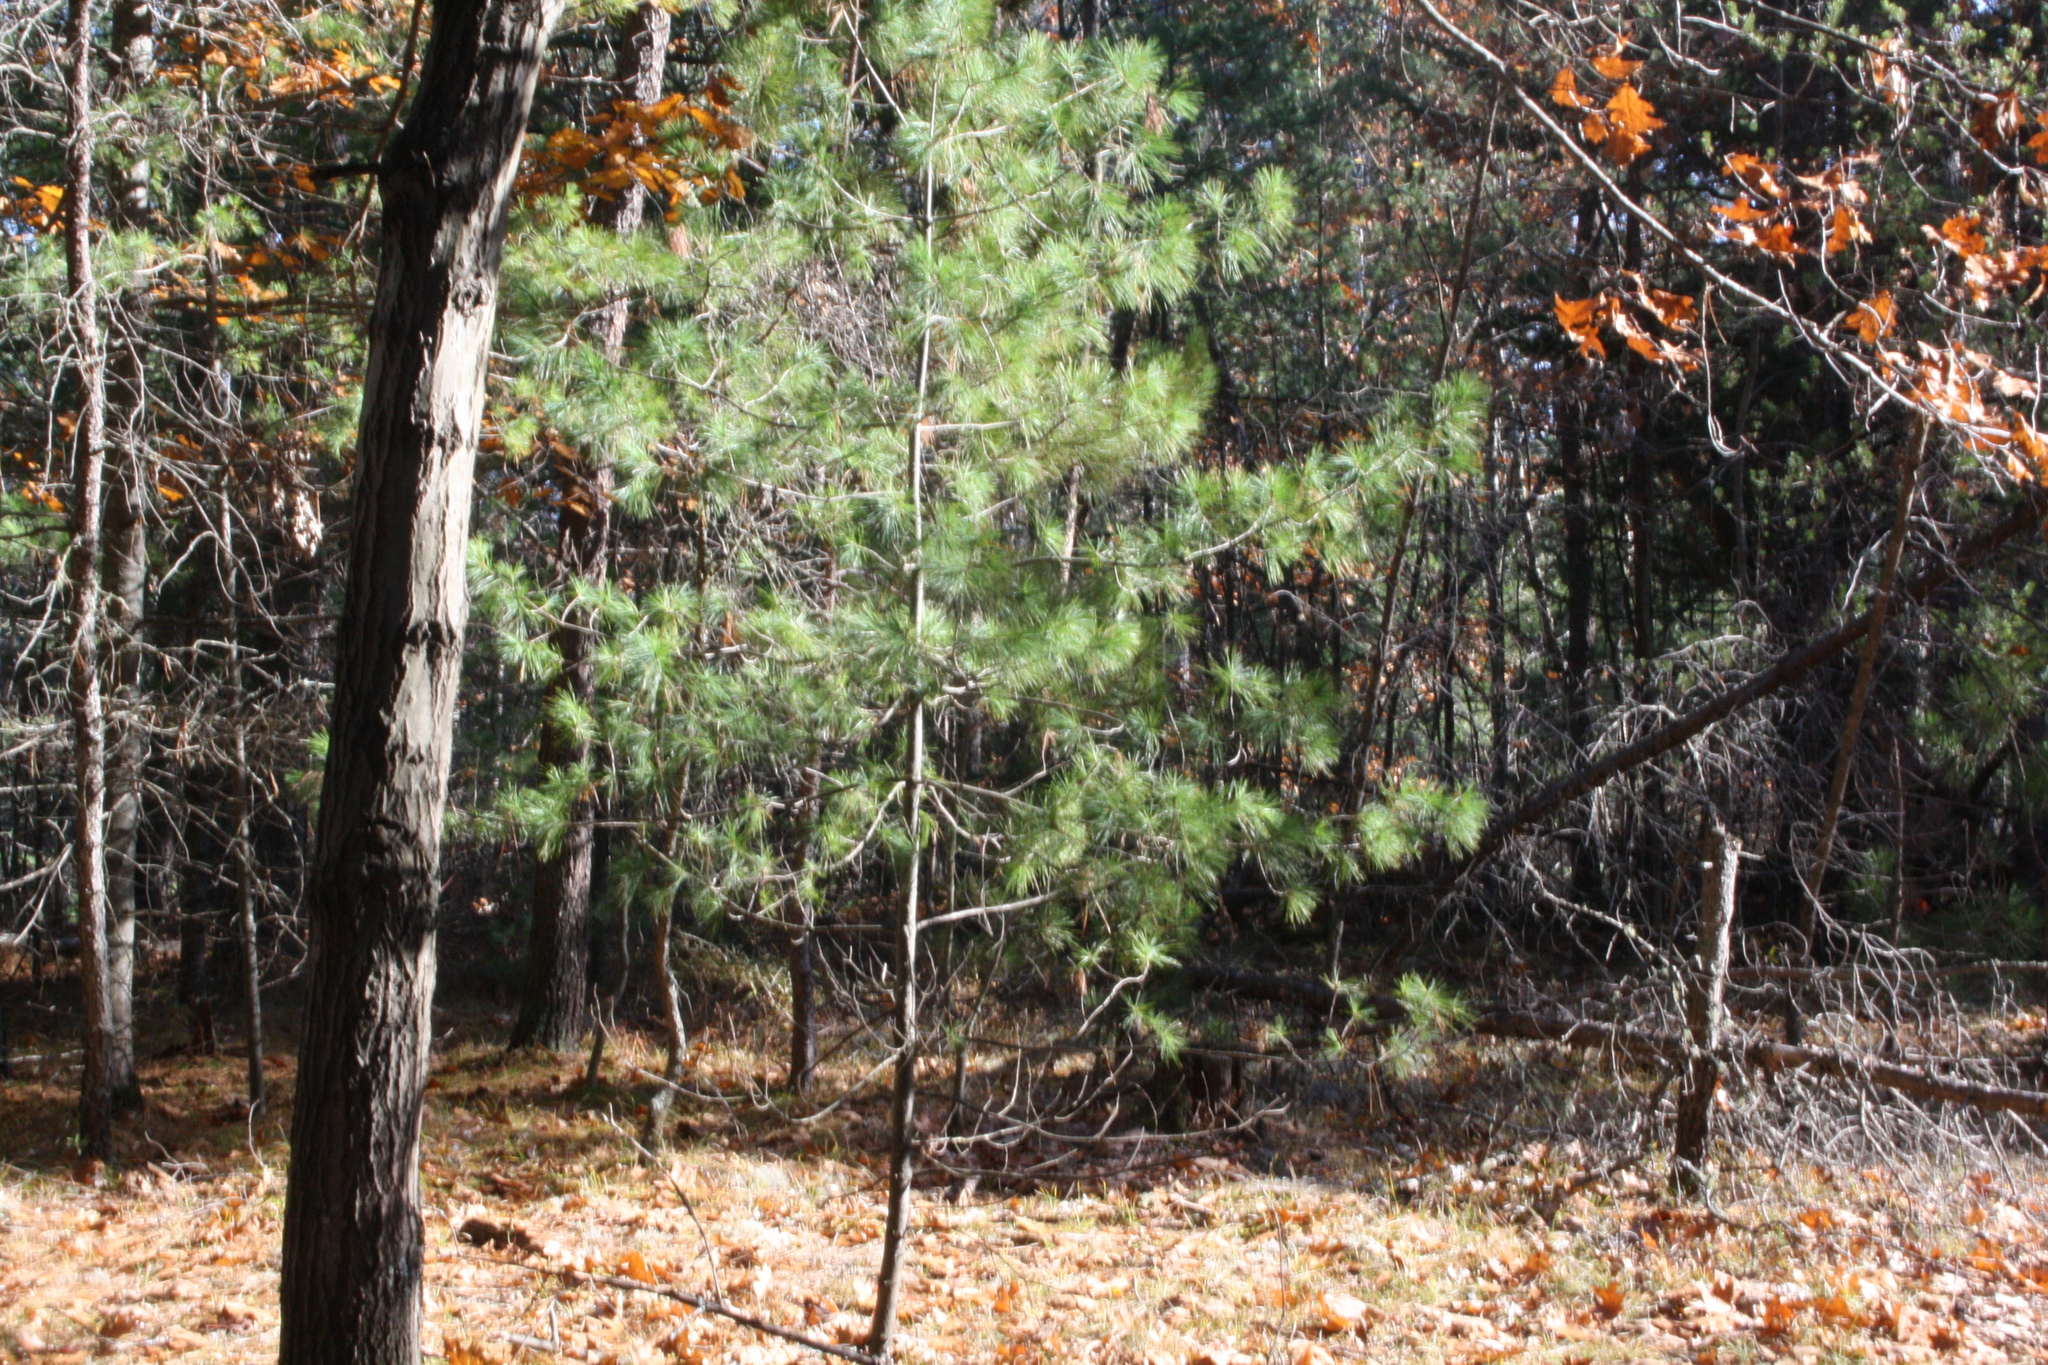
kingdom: Plantae
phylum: Tracheophyta
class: Pinopsida
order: Pinales
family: Pinaceae
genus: Pinus
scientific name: Pinus strobus
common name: Weymouth pine
